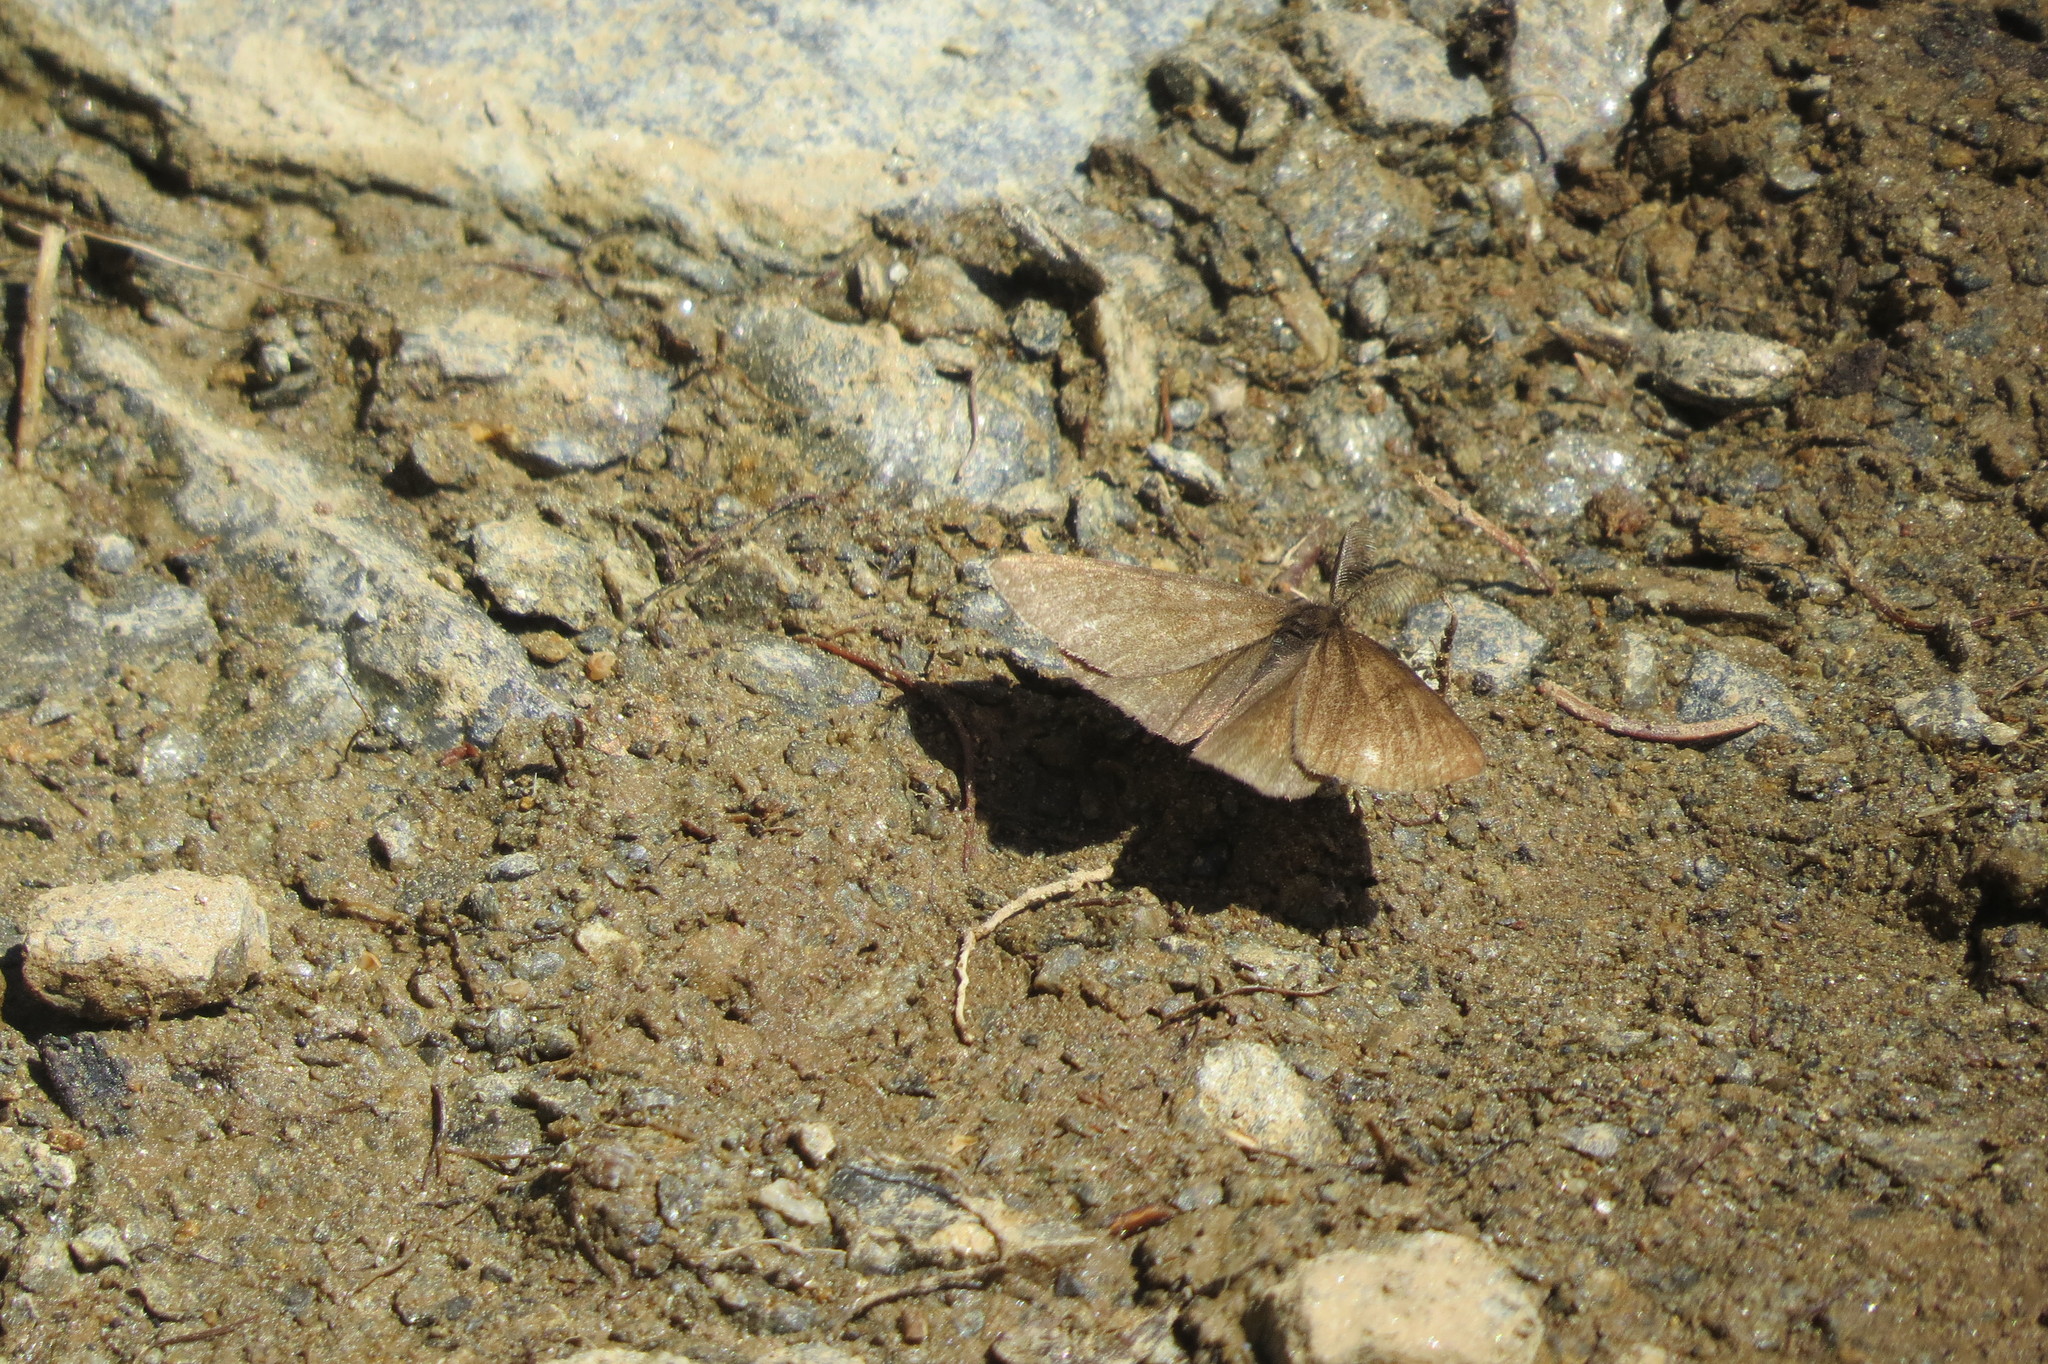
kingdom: Animalia
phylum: Arthropoda
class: Insecta
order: Lepidoptera
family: Geometridae
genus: Ematurga
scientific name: Ematurga atomaria
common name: Common heath
